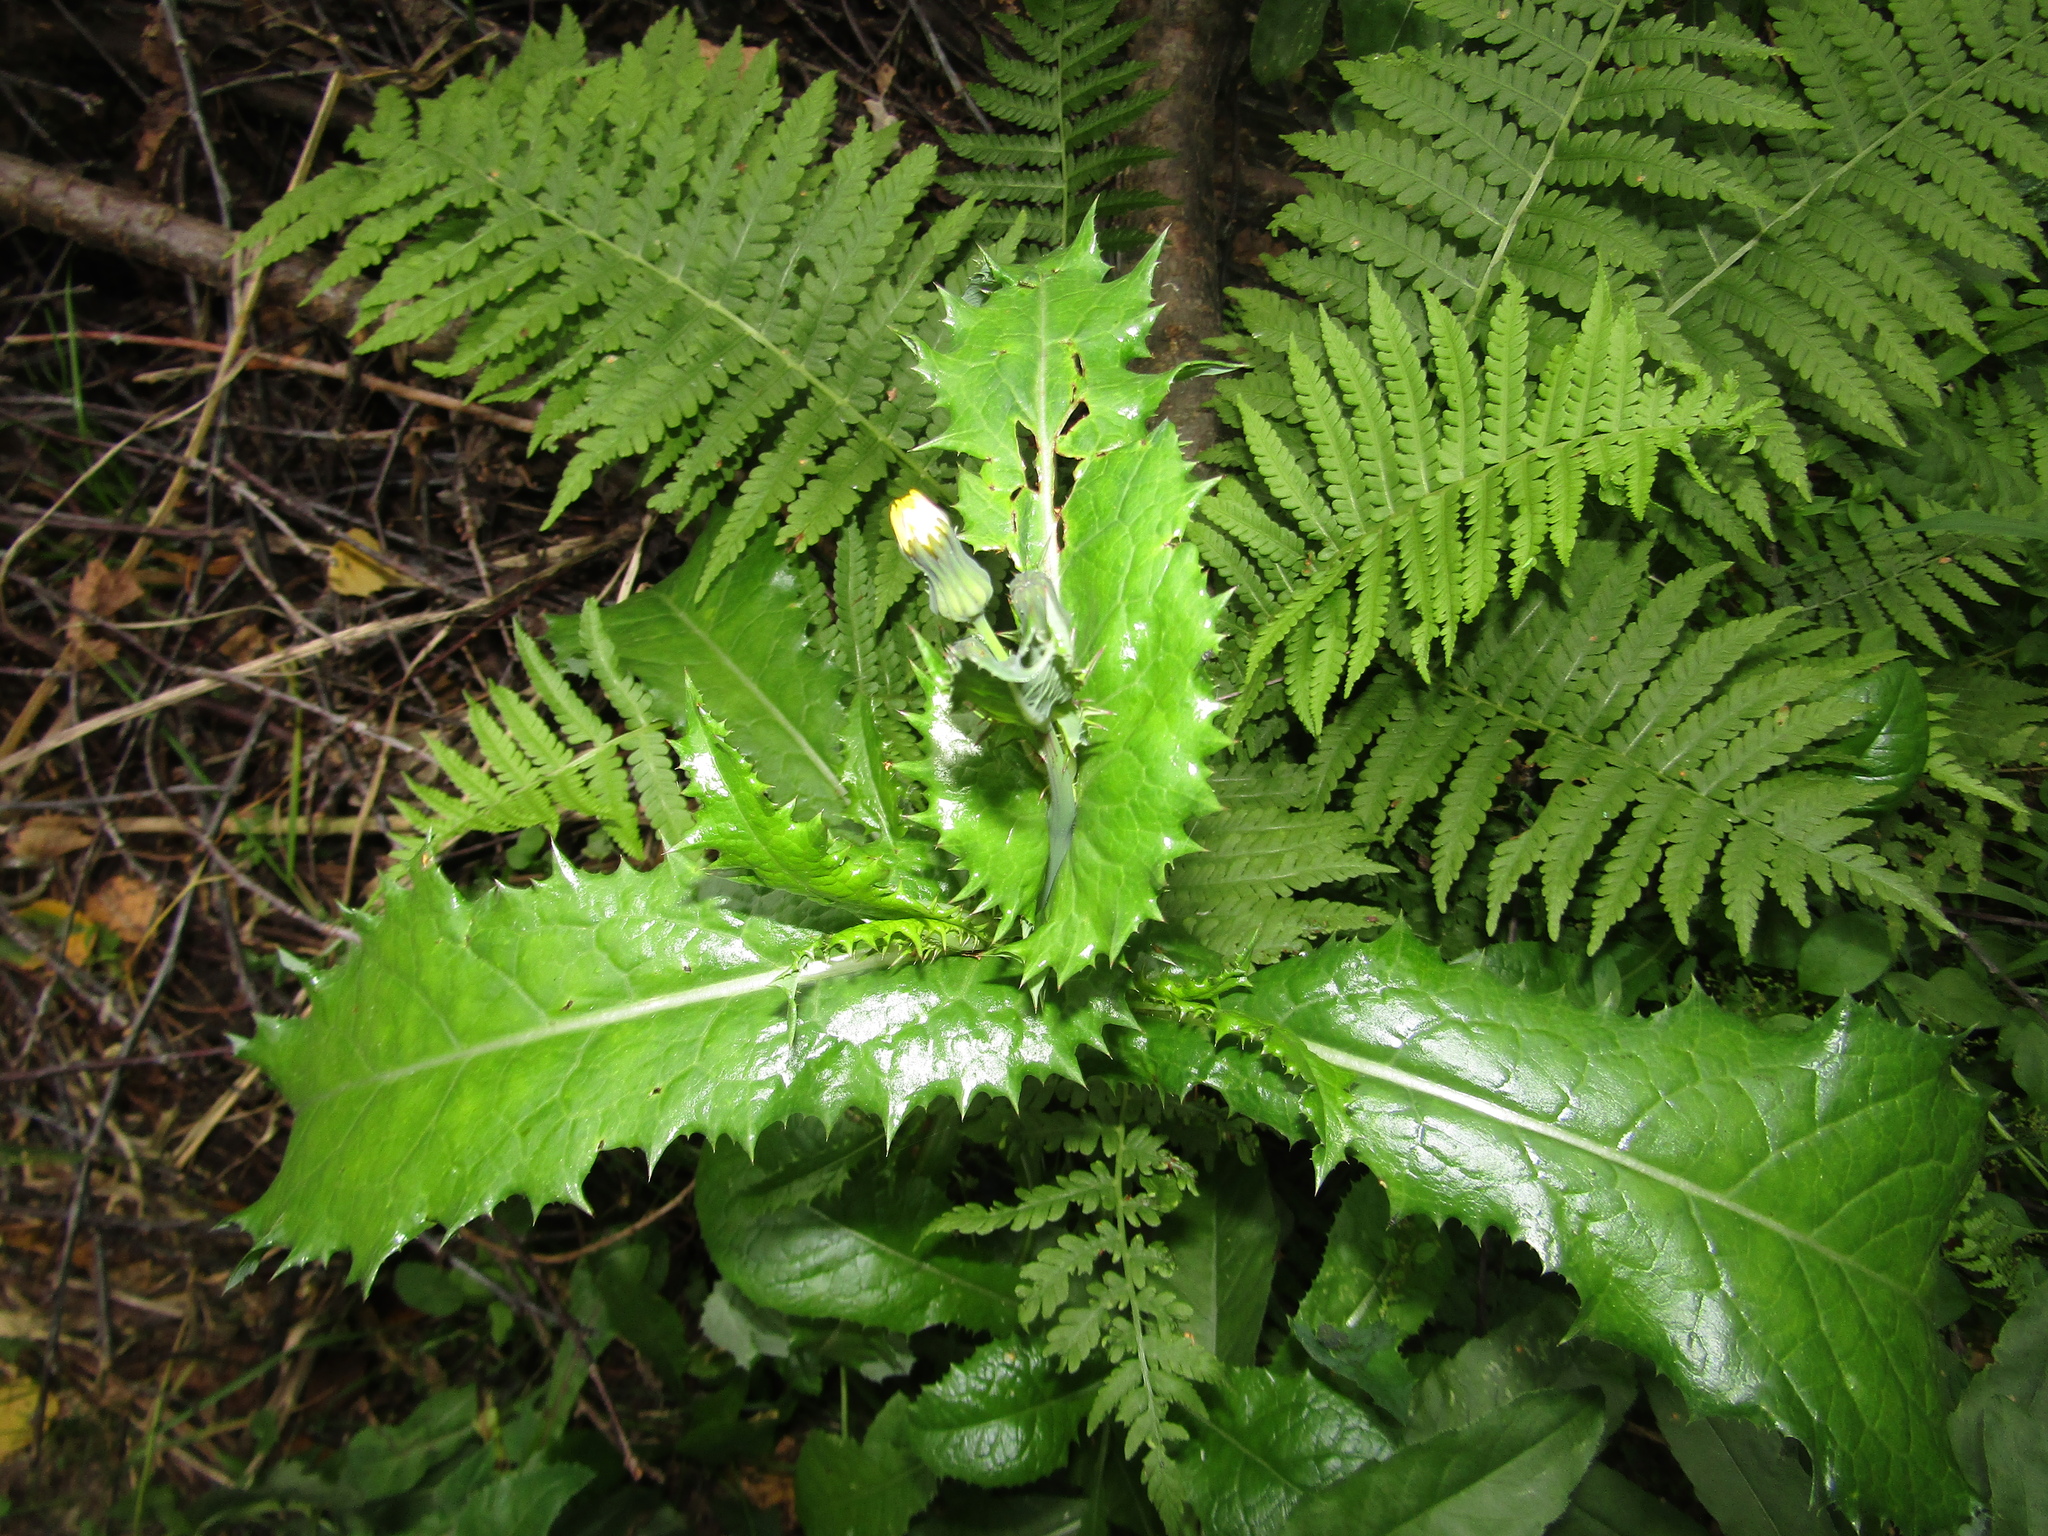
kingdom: Plantae
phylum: Tracheophyta
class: Magnoliopsida
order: Asterales
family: Asteraceae
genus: Sonchus
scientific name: Sonchus asper
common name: Prickly sow-thistle
